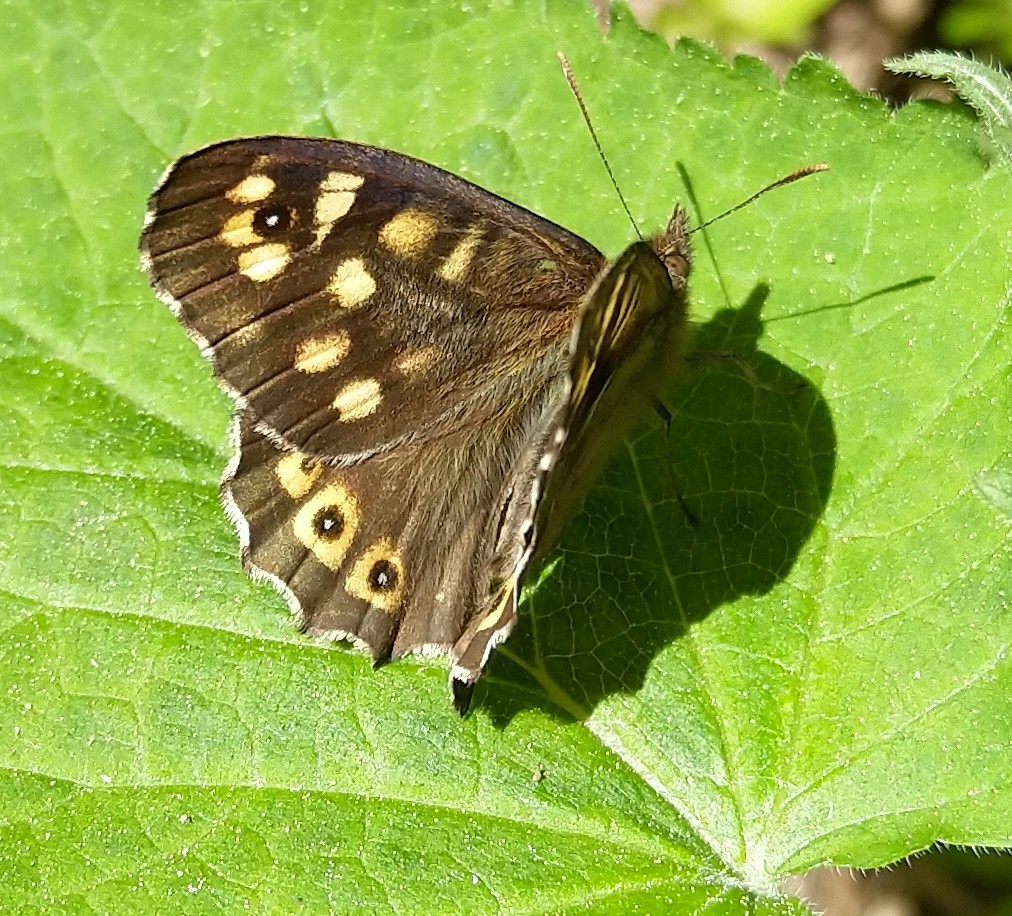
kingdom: Animalia
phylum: Arthropoda
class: Insecta
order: Lepidoptera
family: Nymphalidae
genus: Pararge
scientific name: Pararge aegeria
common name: Speckled wood
